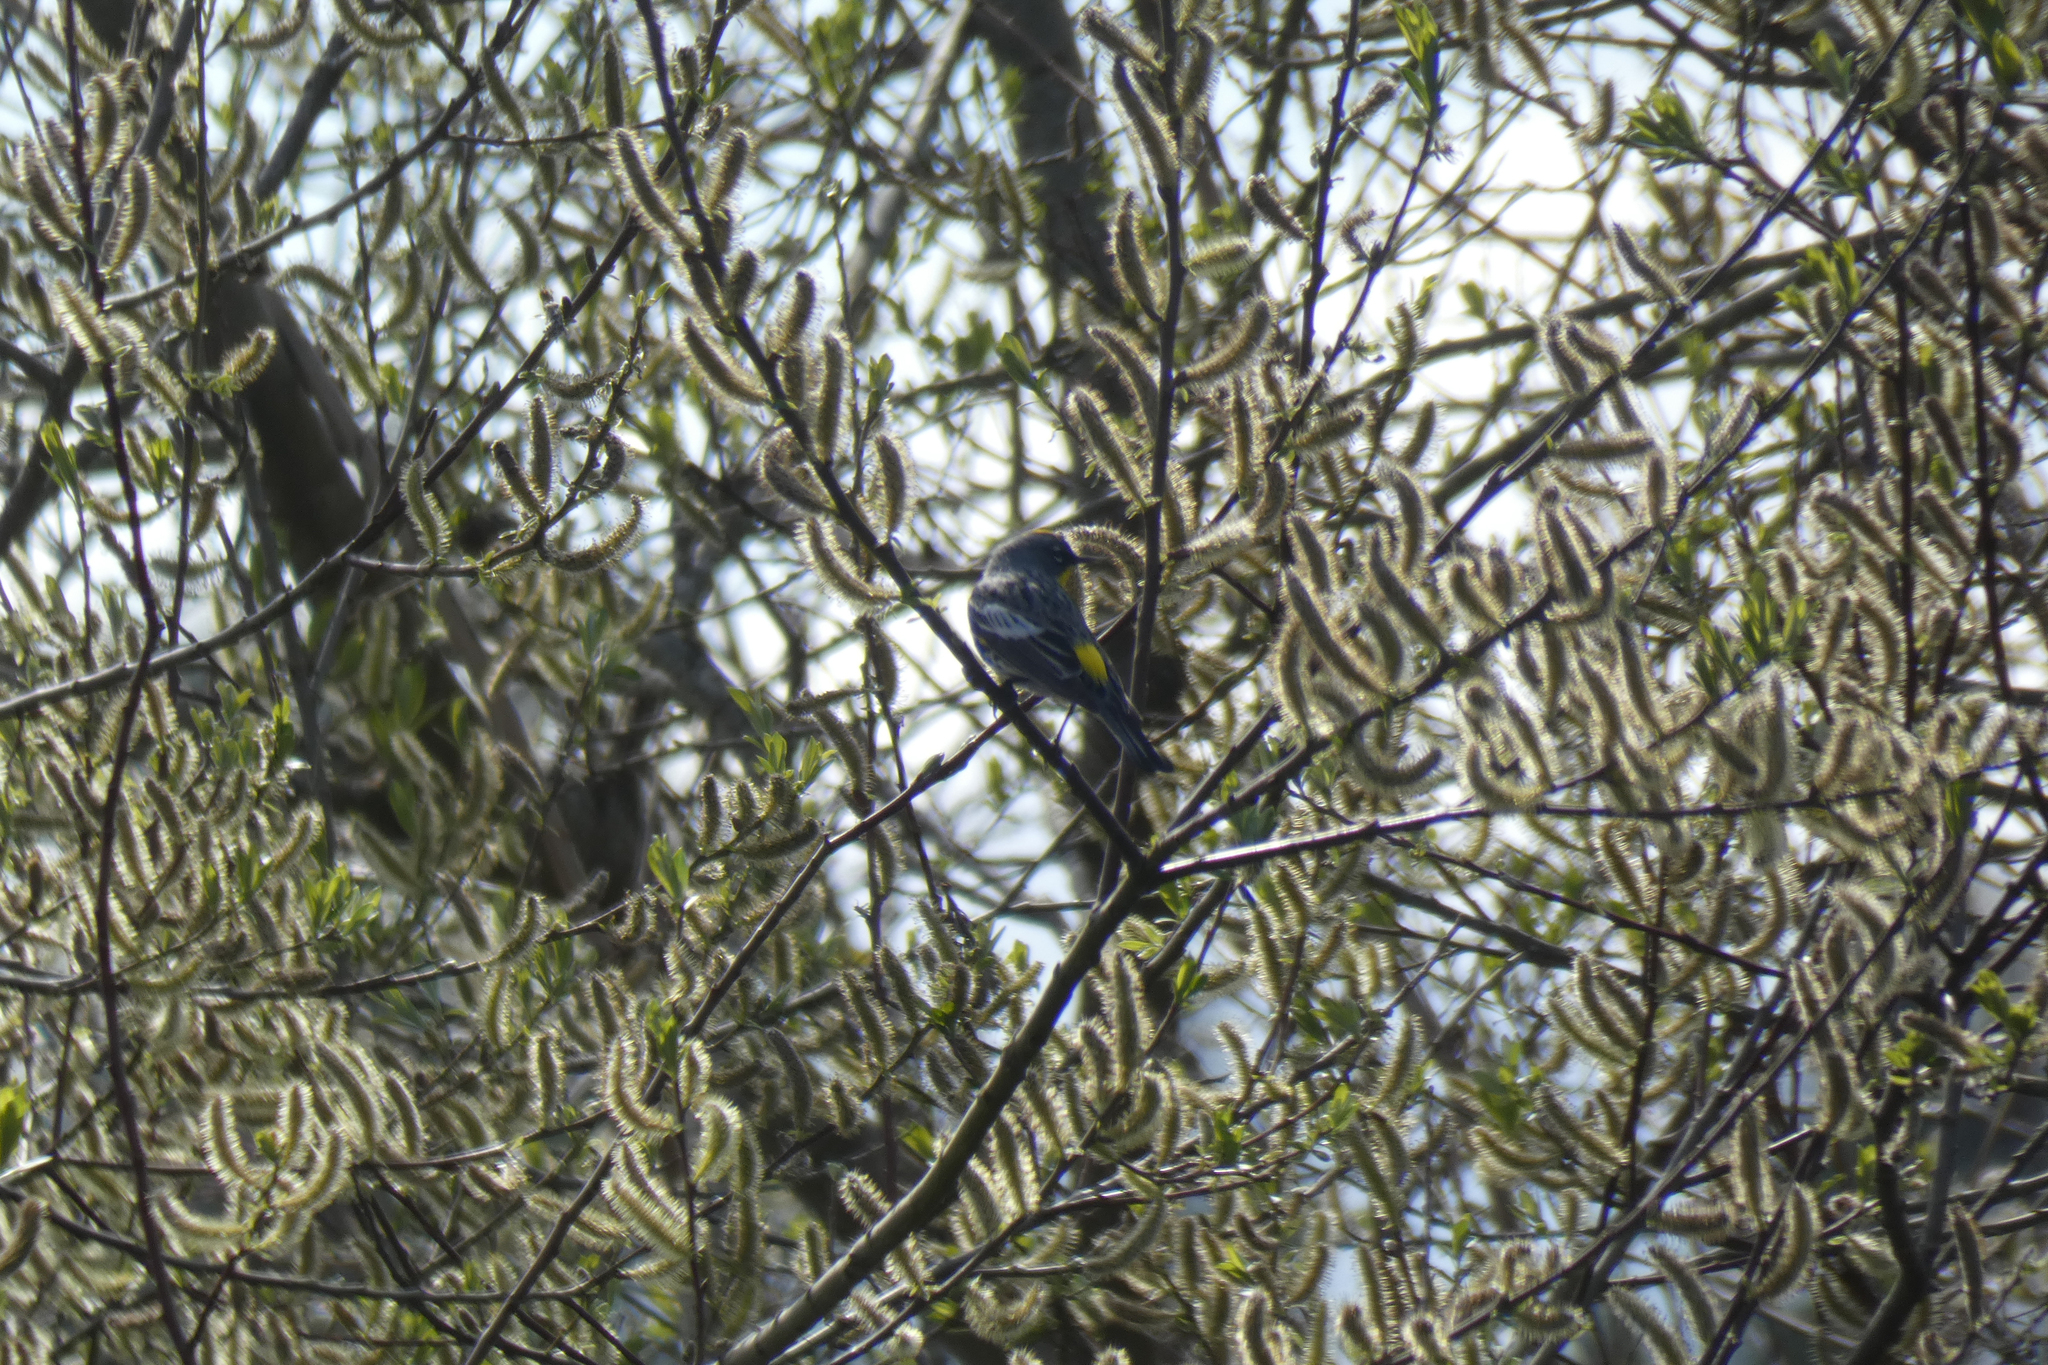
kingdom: Animalia
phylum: Chordata
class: Aves
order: Passeriformes
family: Parulidae
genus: Setophaga
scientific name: Setophaga coronata
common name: Myrtle warbler
